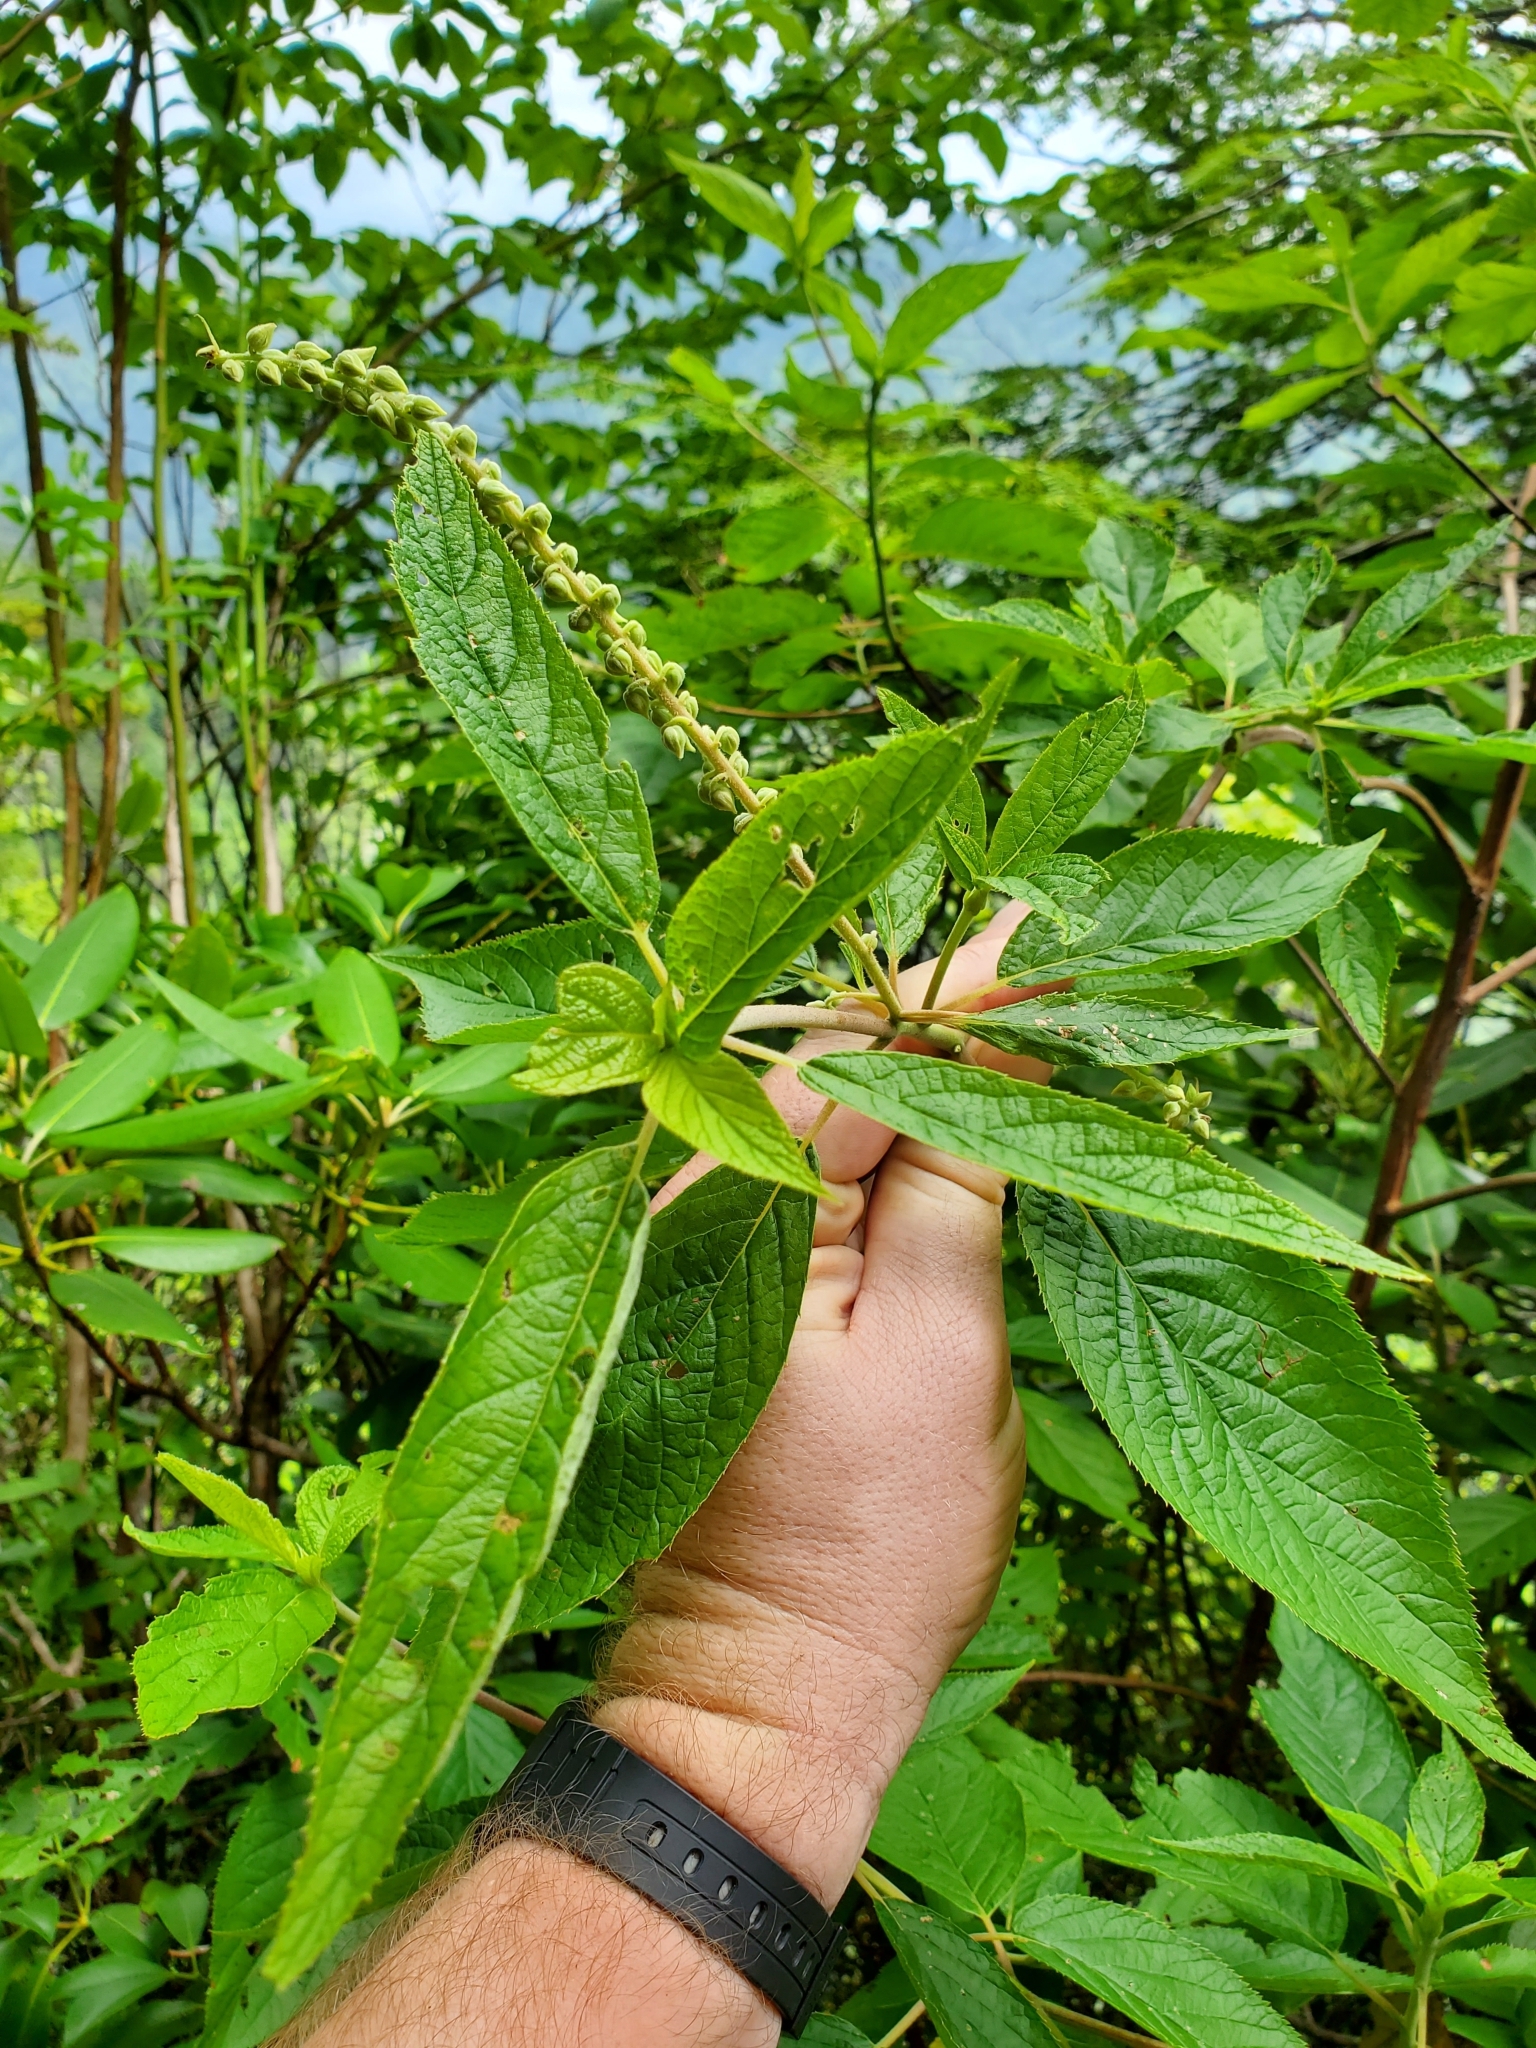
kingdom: Plantae
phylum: Tracheophyta
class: Magnoliopsida
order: Ericales
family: Clethraceae
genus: Clethra
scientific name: Clethra acuminata
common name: Mountain sweet pepperbush
